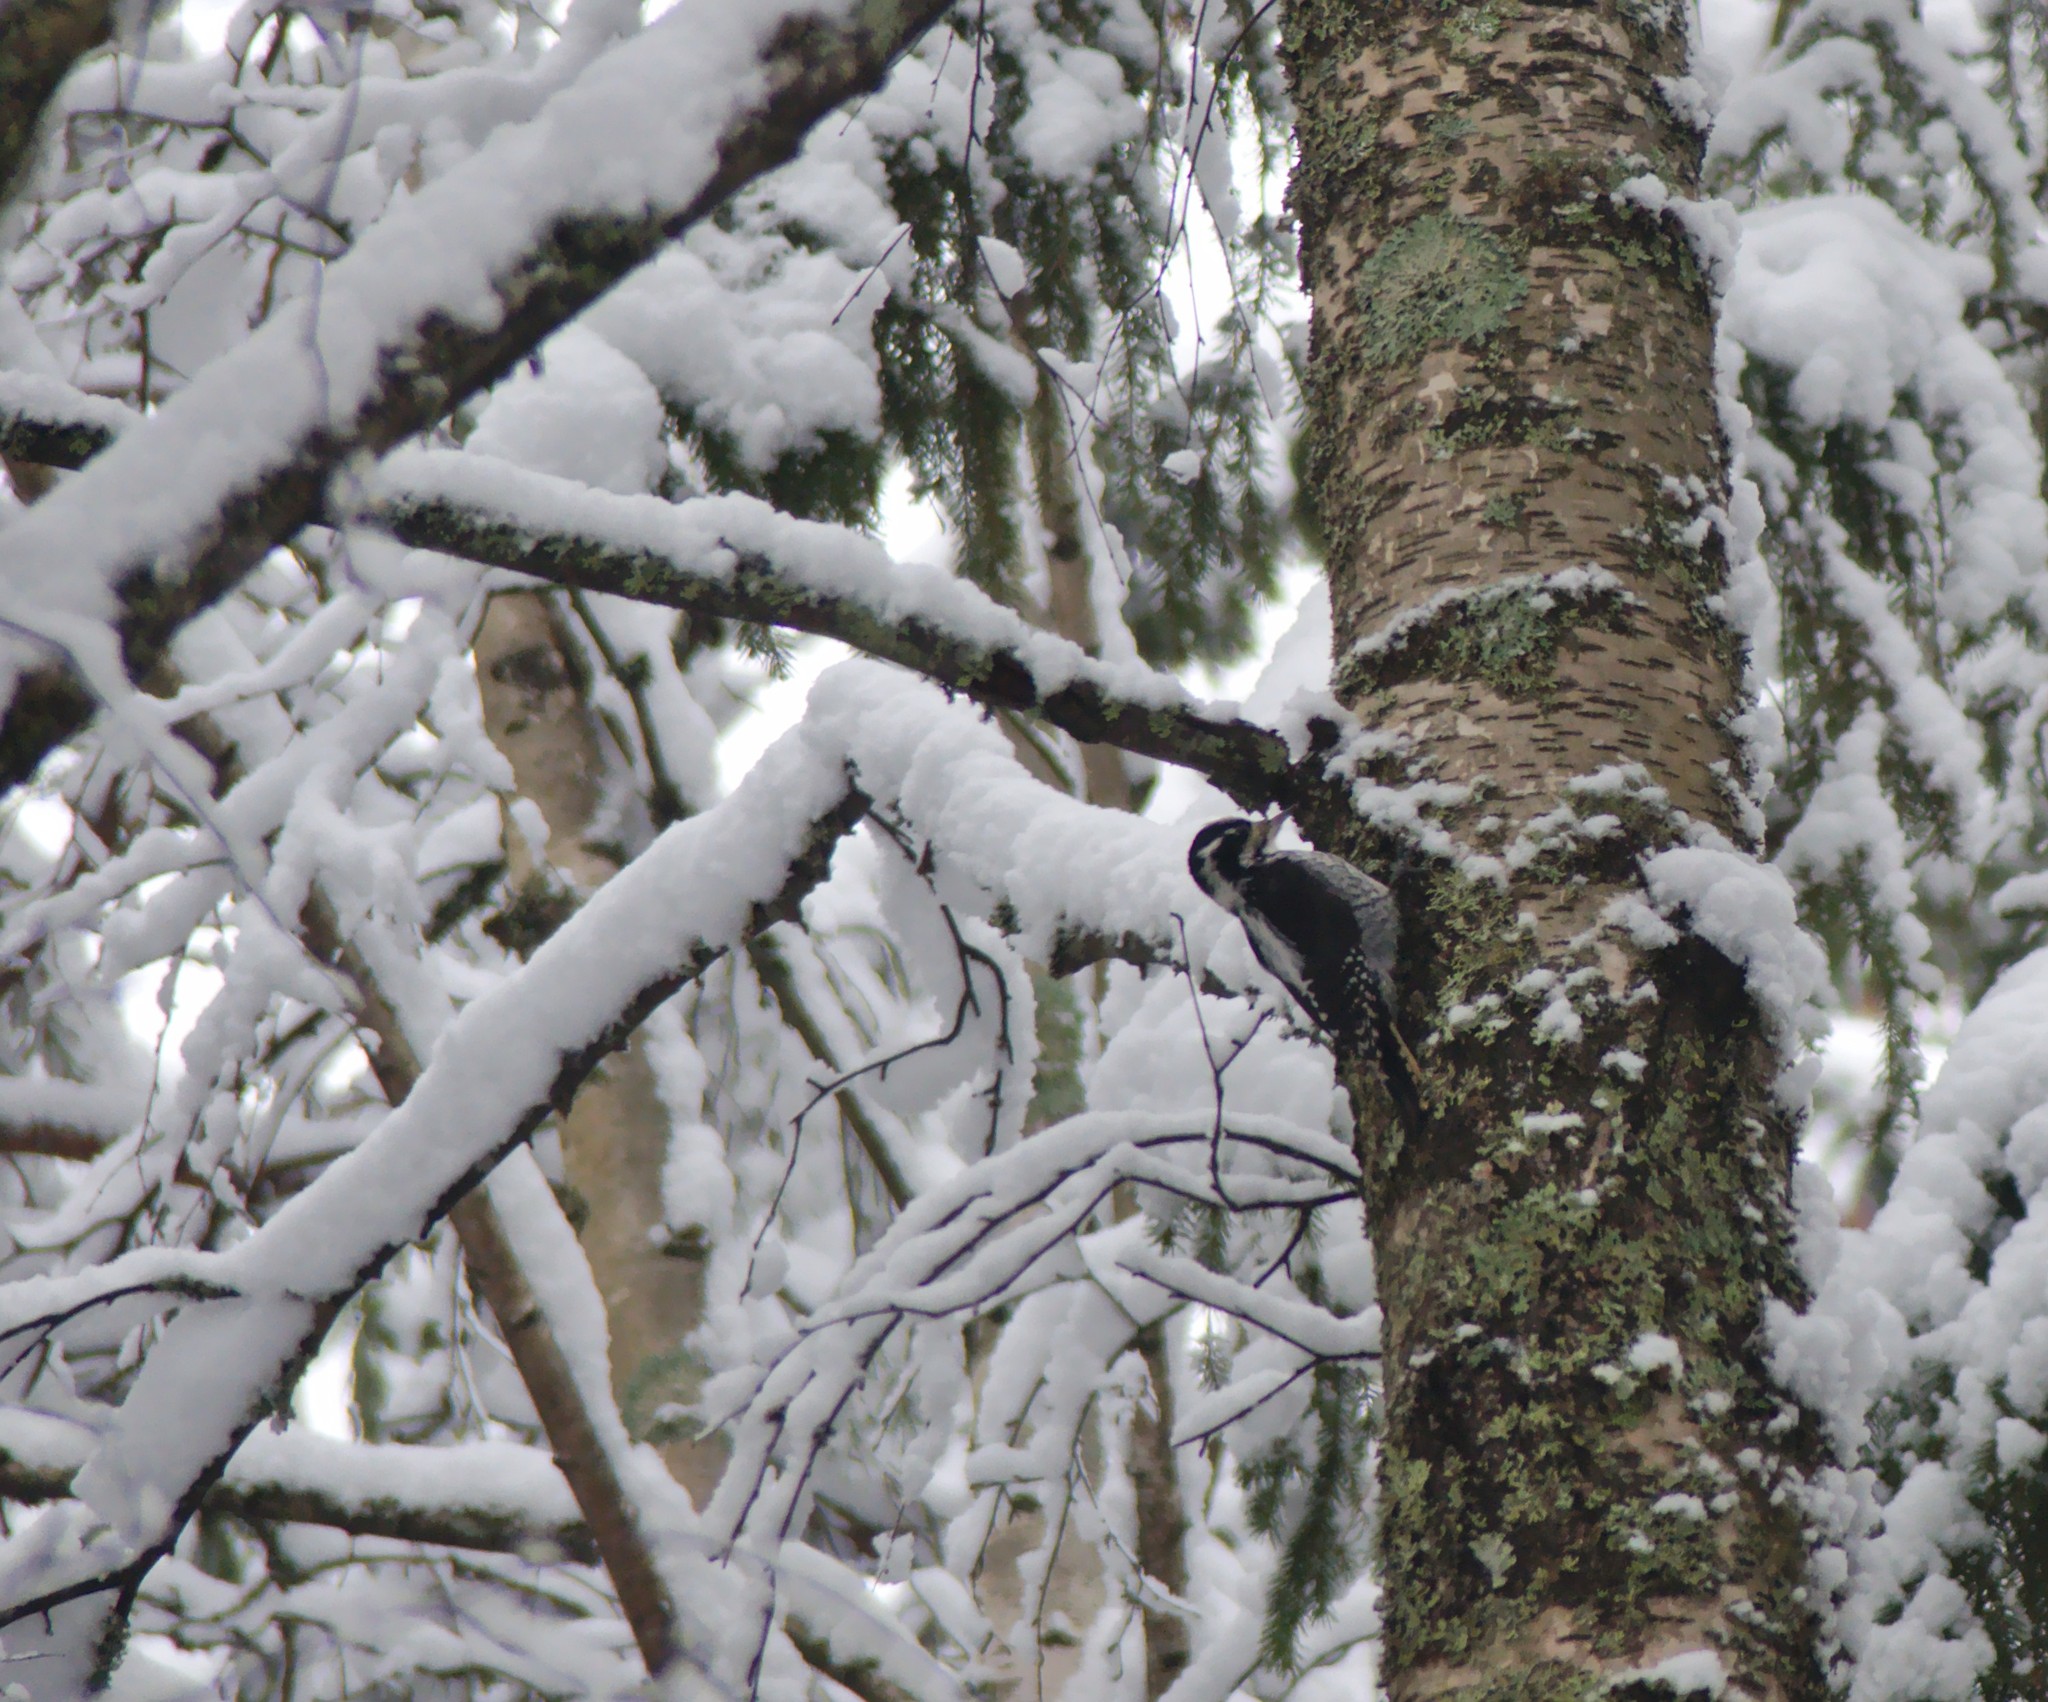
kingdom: Animalia
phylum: Chordata
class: Aves
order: Piciformes
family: Picidae
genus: Picoides
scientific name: Picoides tridactylus
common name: Eurasian three-toed woodpecker
